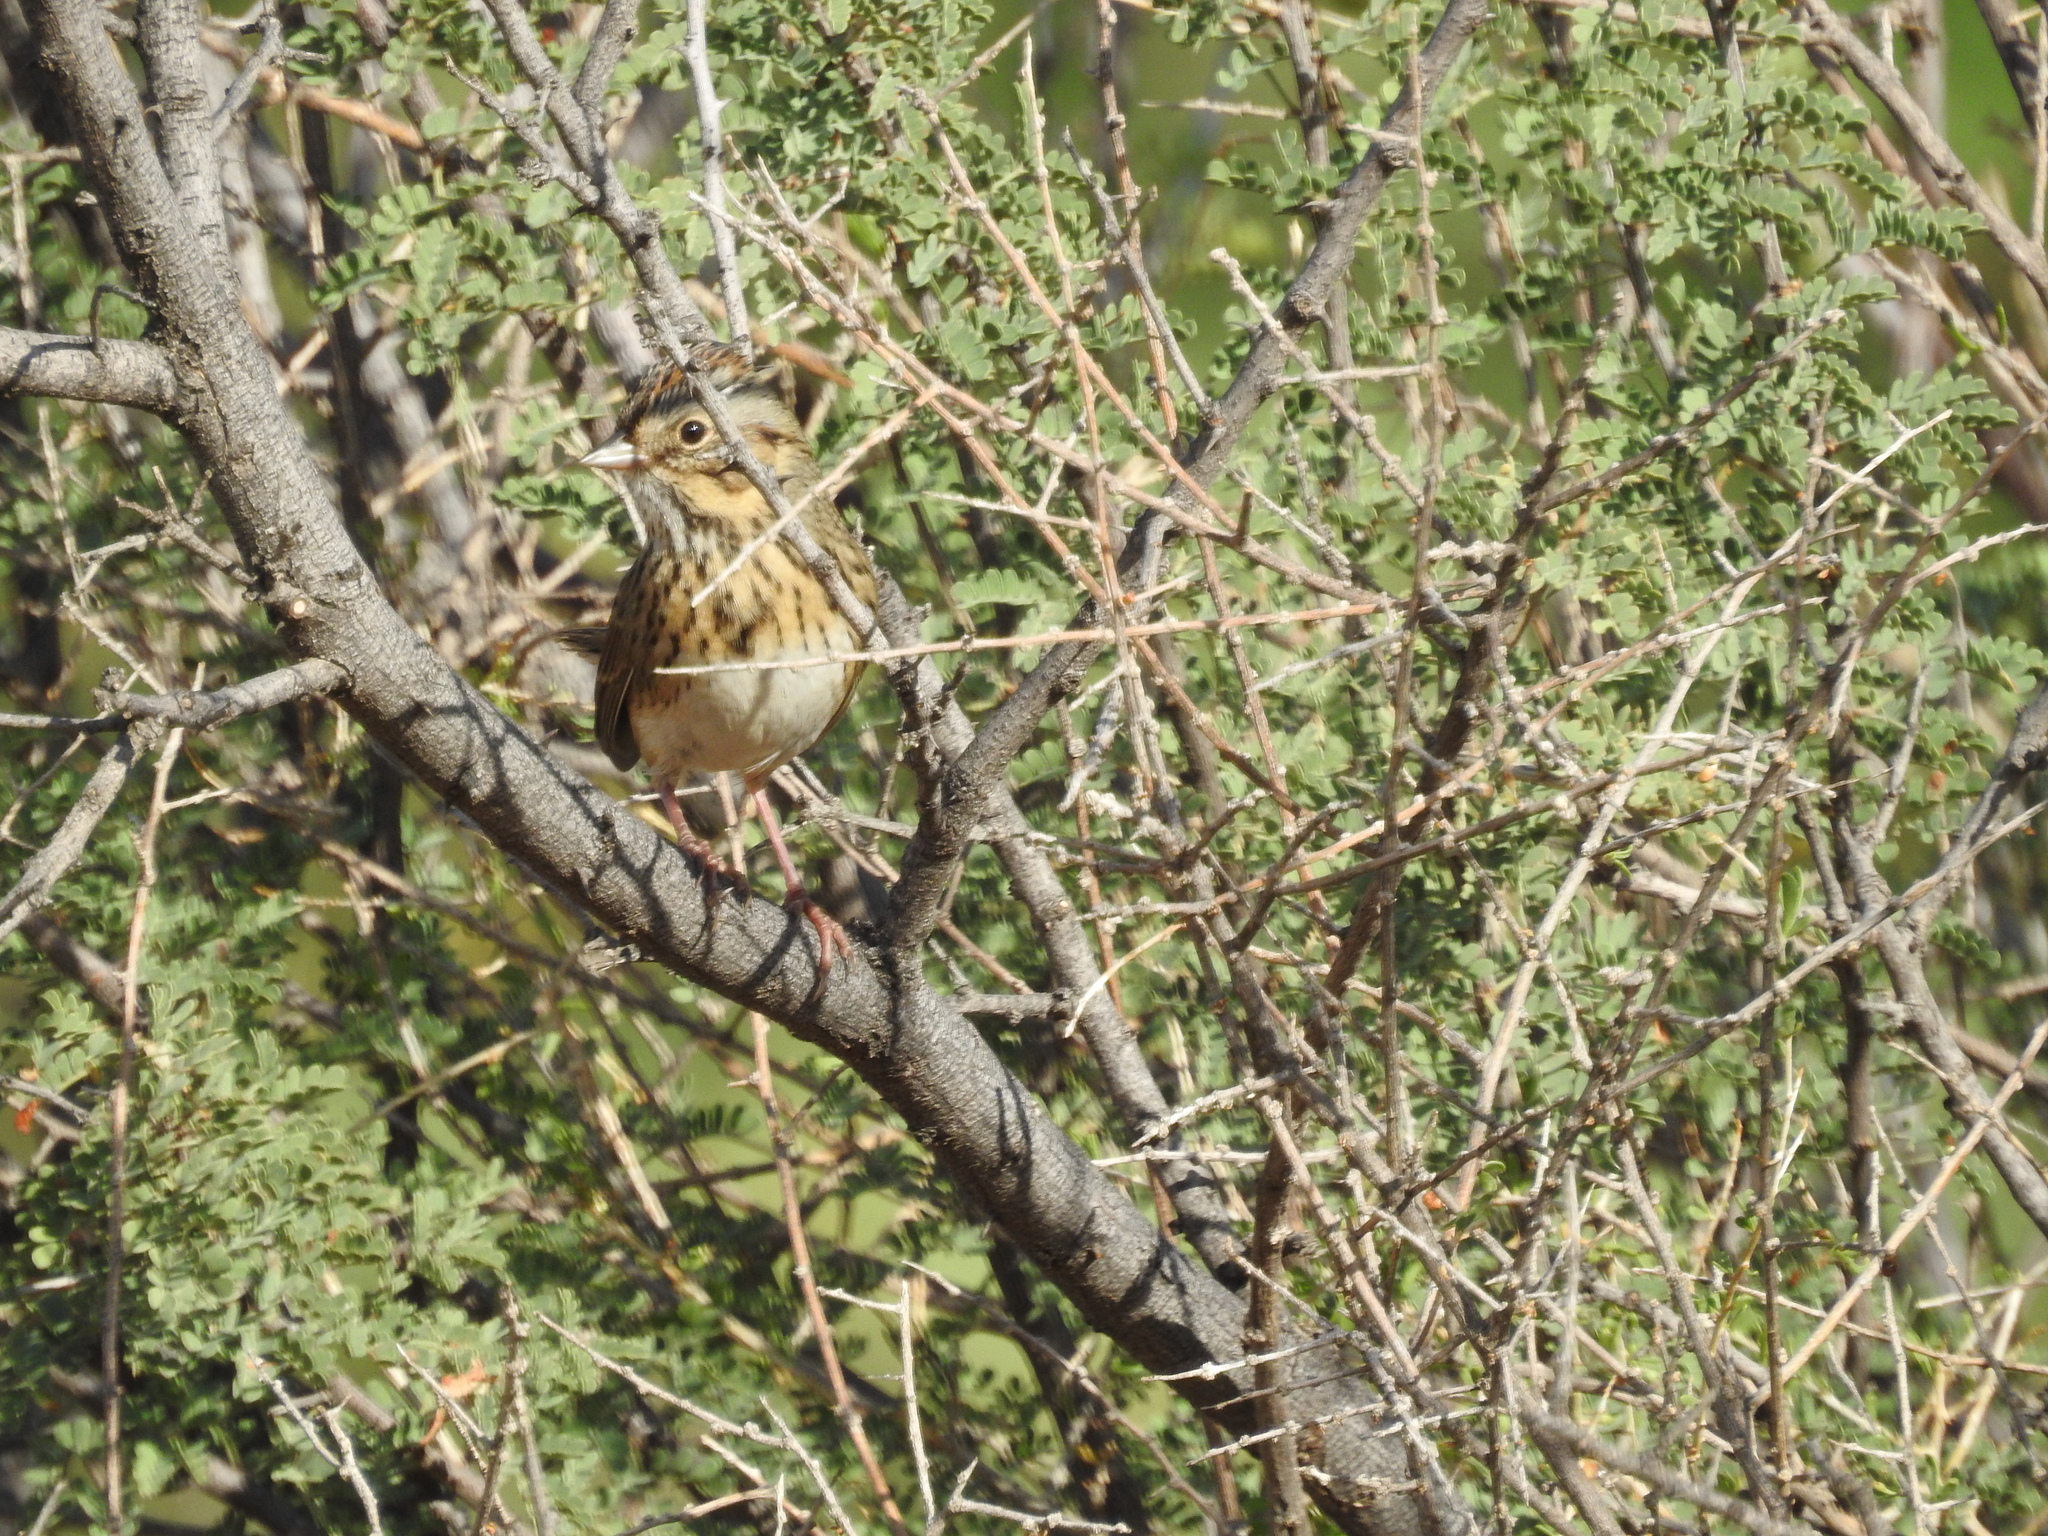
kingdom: Animalia
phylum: Chordata
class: Aves
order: Passeriformes
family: Passerellidae
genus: Melospiza
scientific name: Melospiza lincolnii
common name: Lincoln's sparrow
